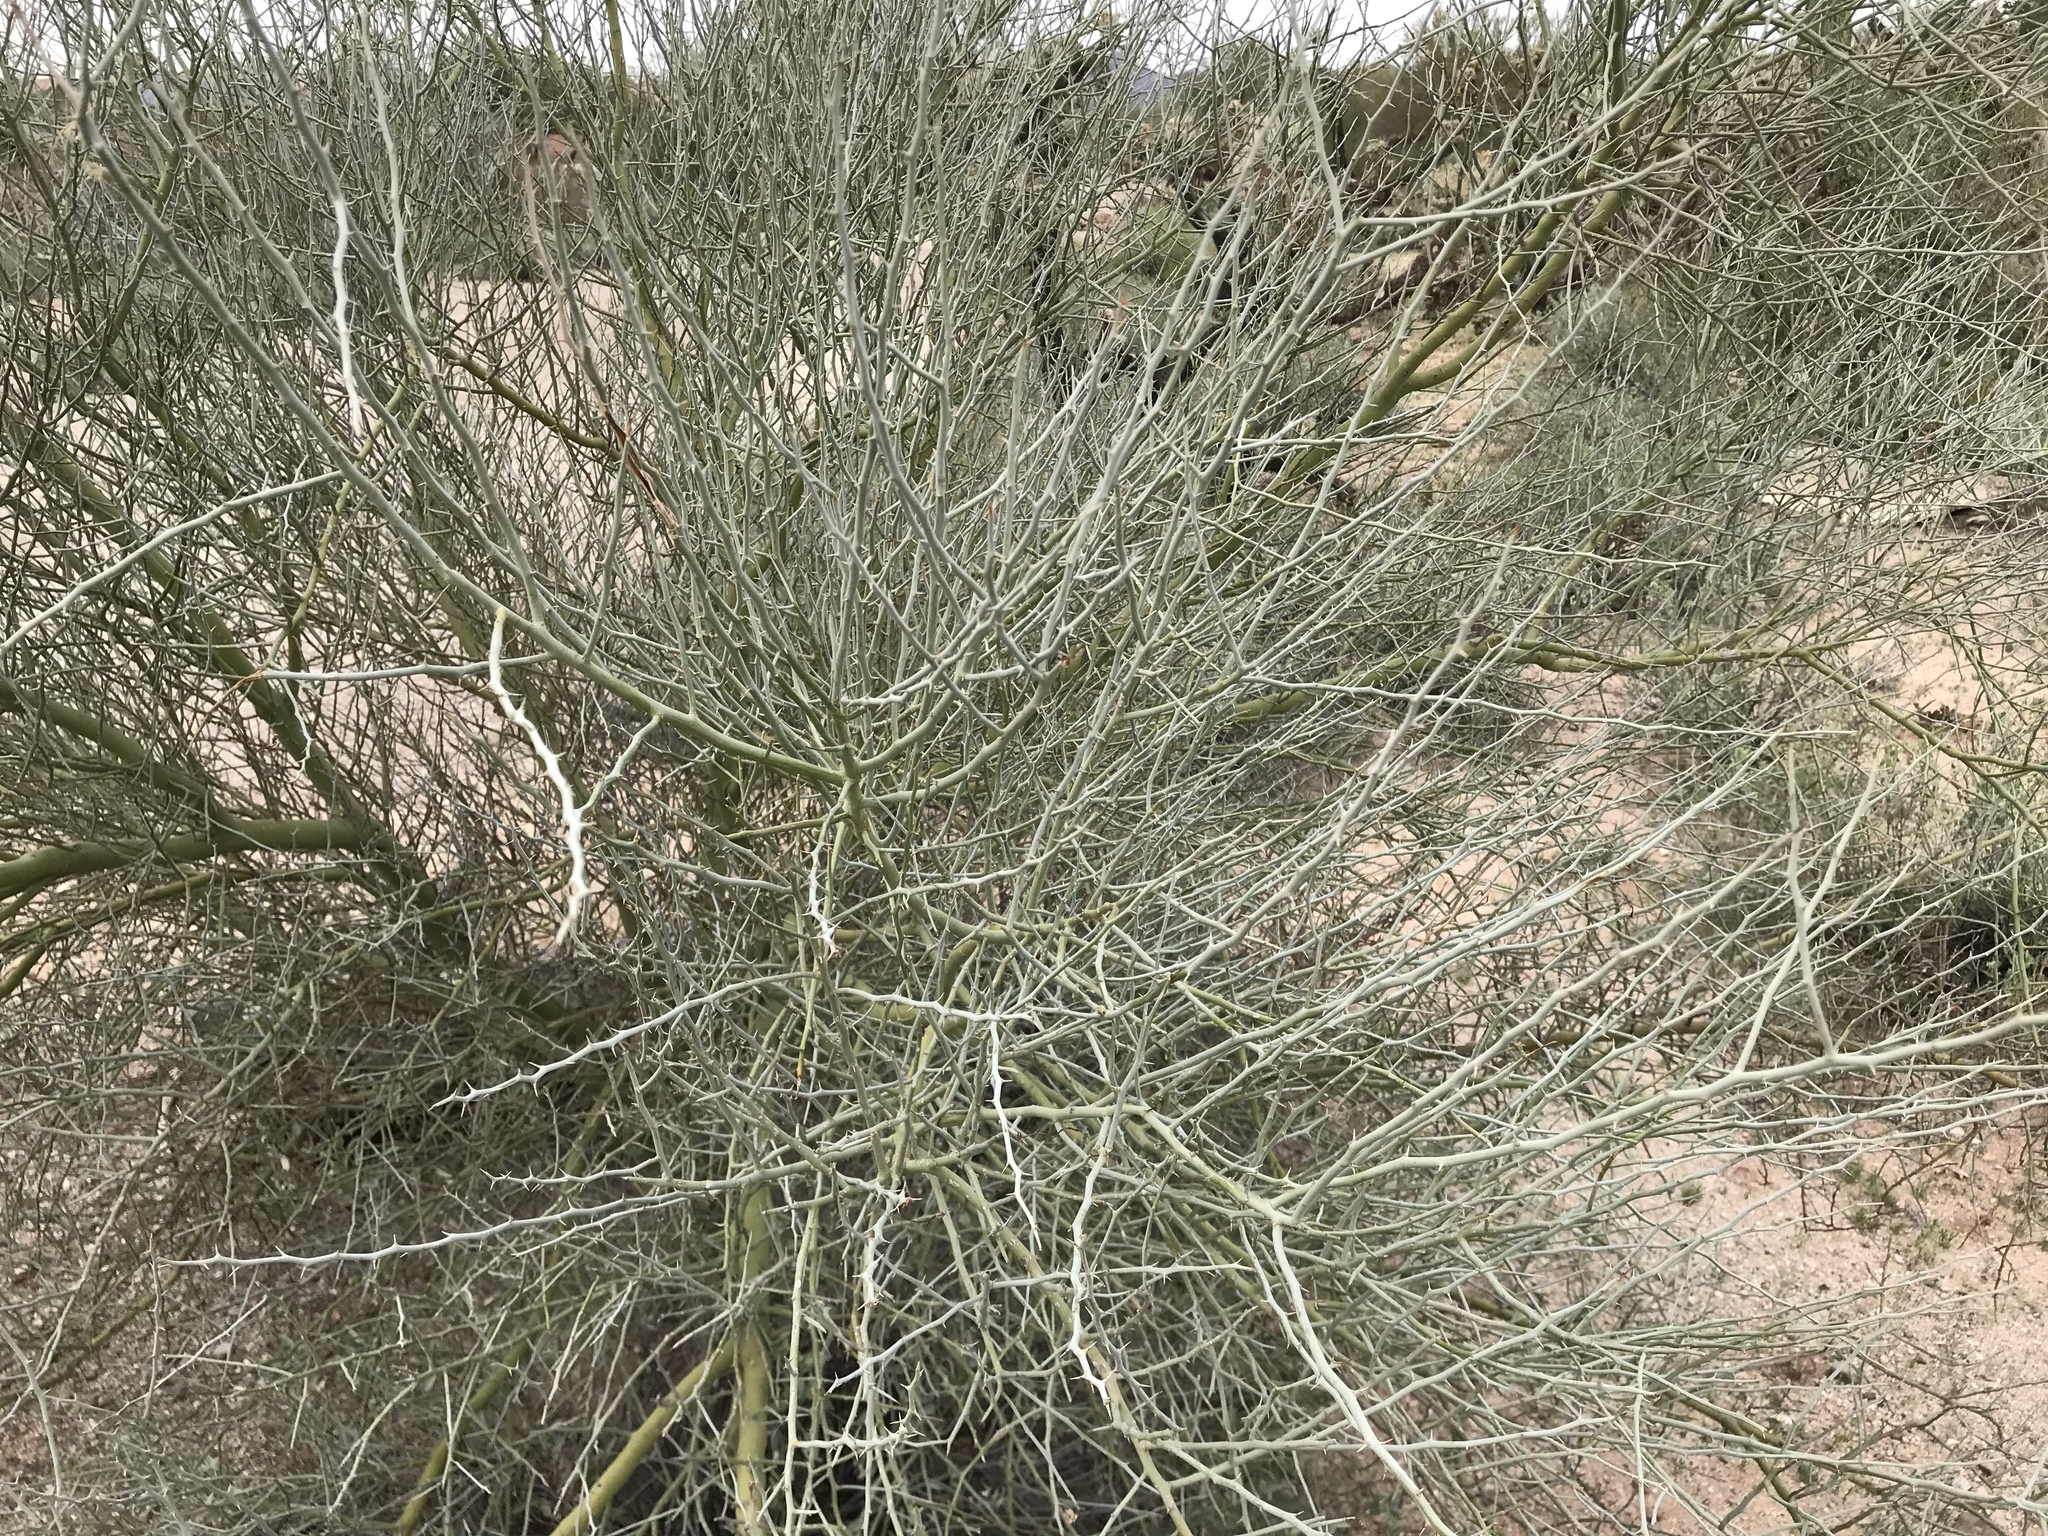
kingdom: Plantae
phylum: Tracheophyta
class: Magnoliopsida
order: Fabales
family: Fabaceae
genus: Parkinsonia
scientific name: Parkinsonia florida
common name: Blue paloverde
